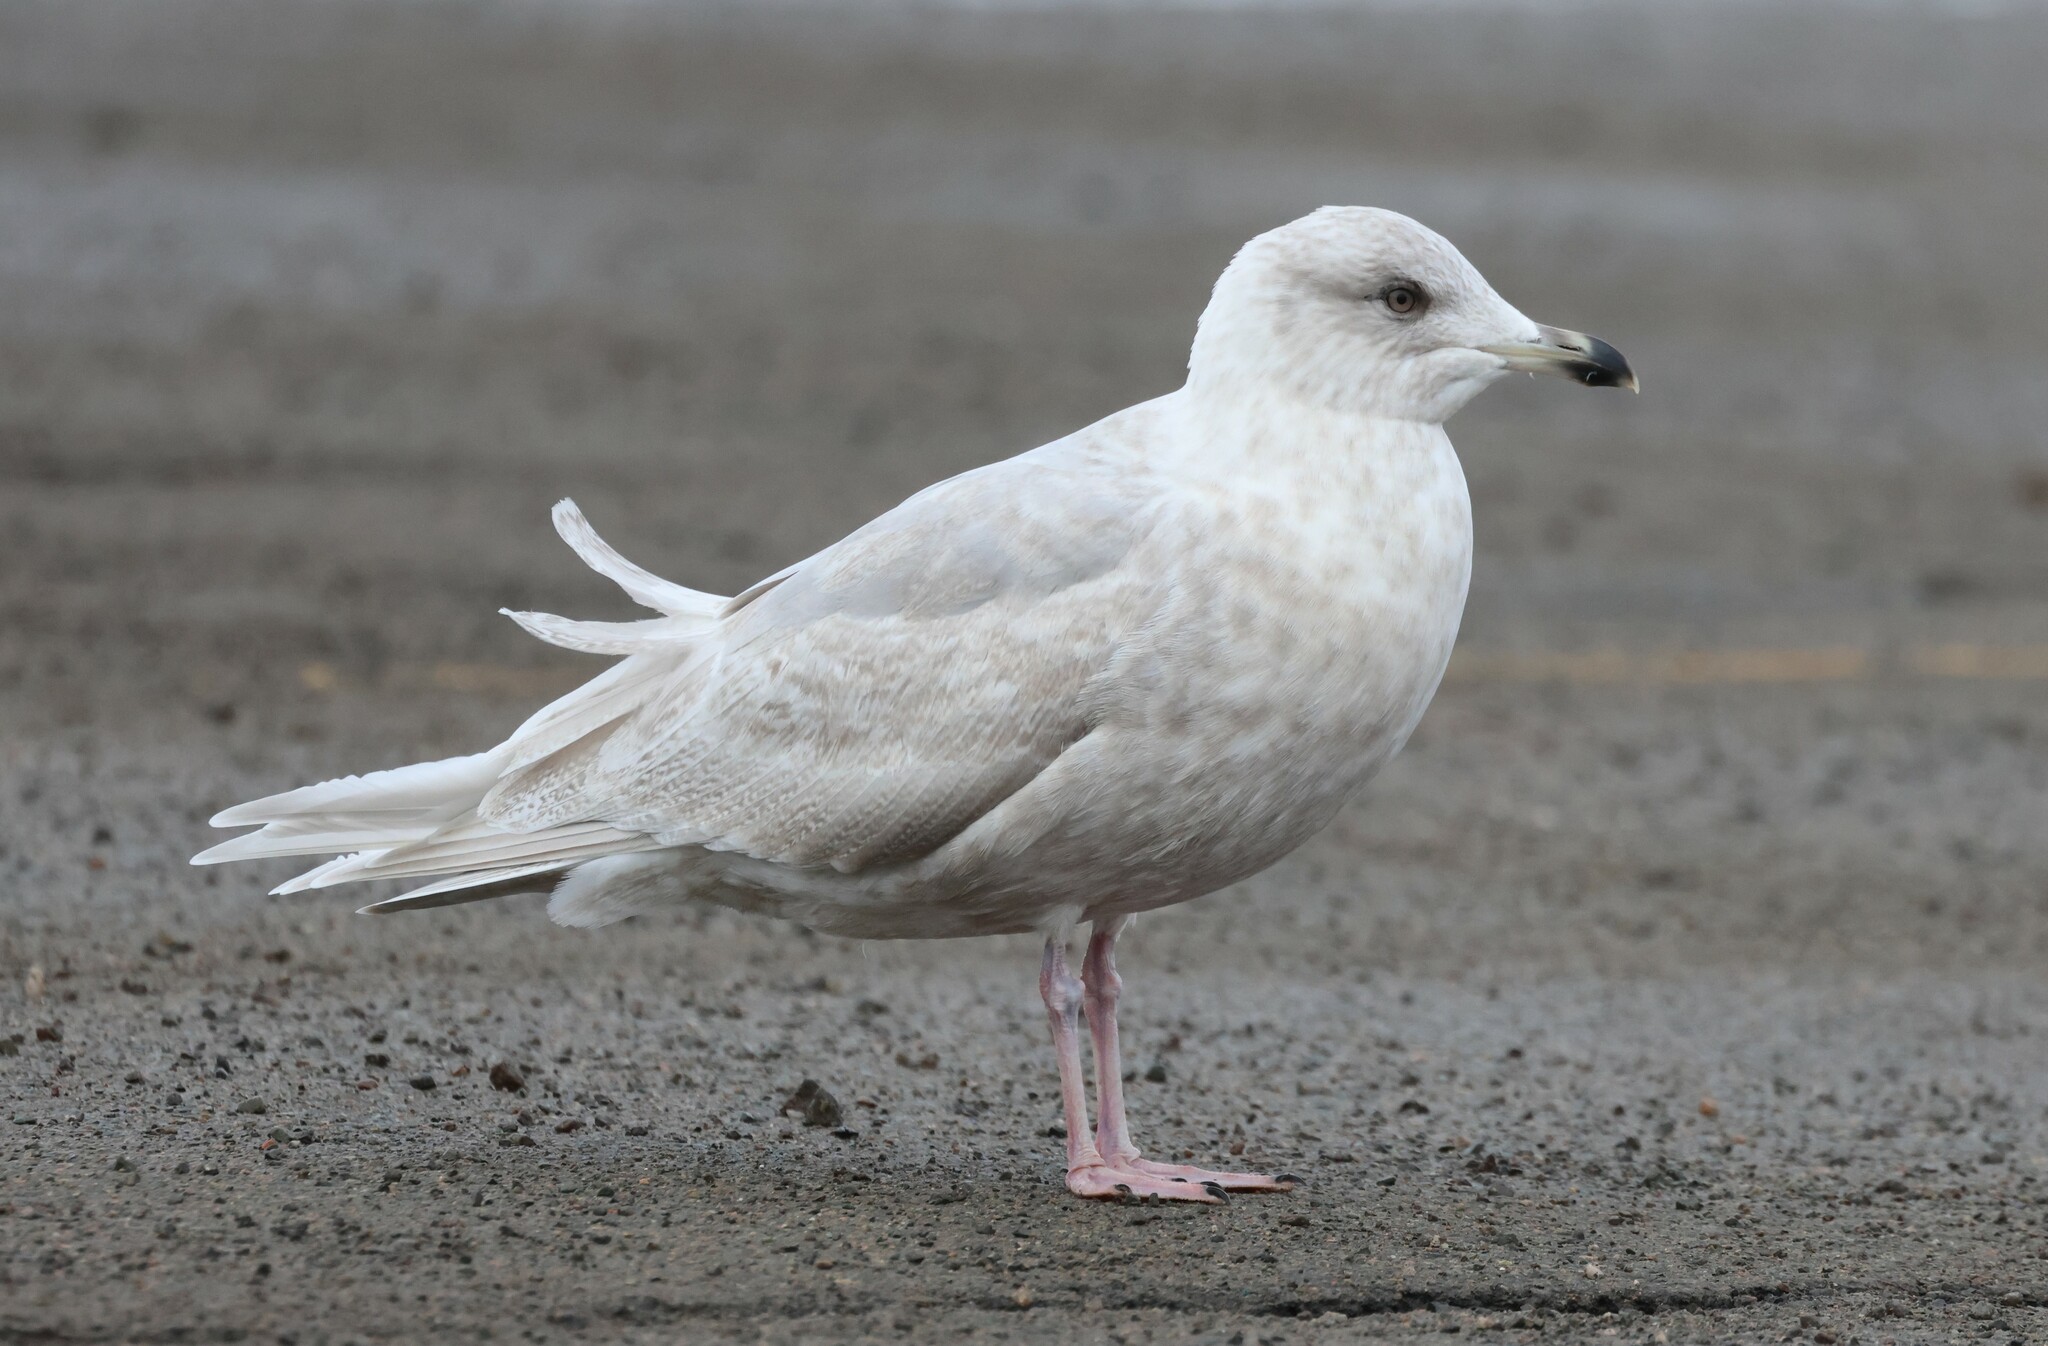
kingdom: Animalia
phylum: Chordata
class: Aves
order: Charadriiformes
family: Laridae
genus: Larus
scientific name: Larus glaucoides
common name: Iceland gull
